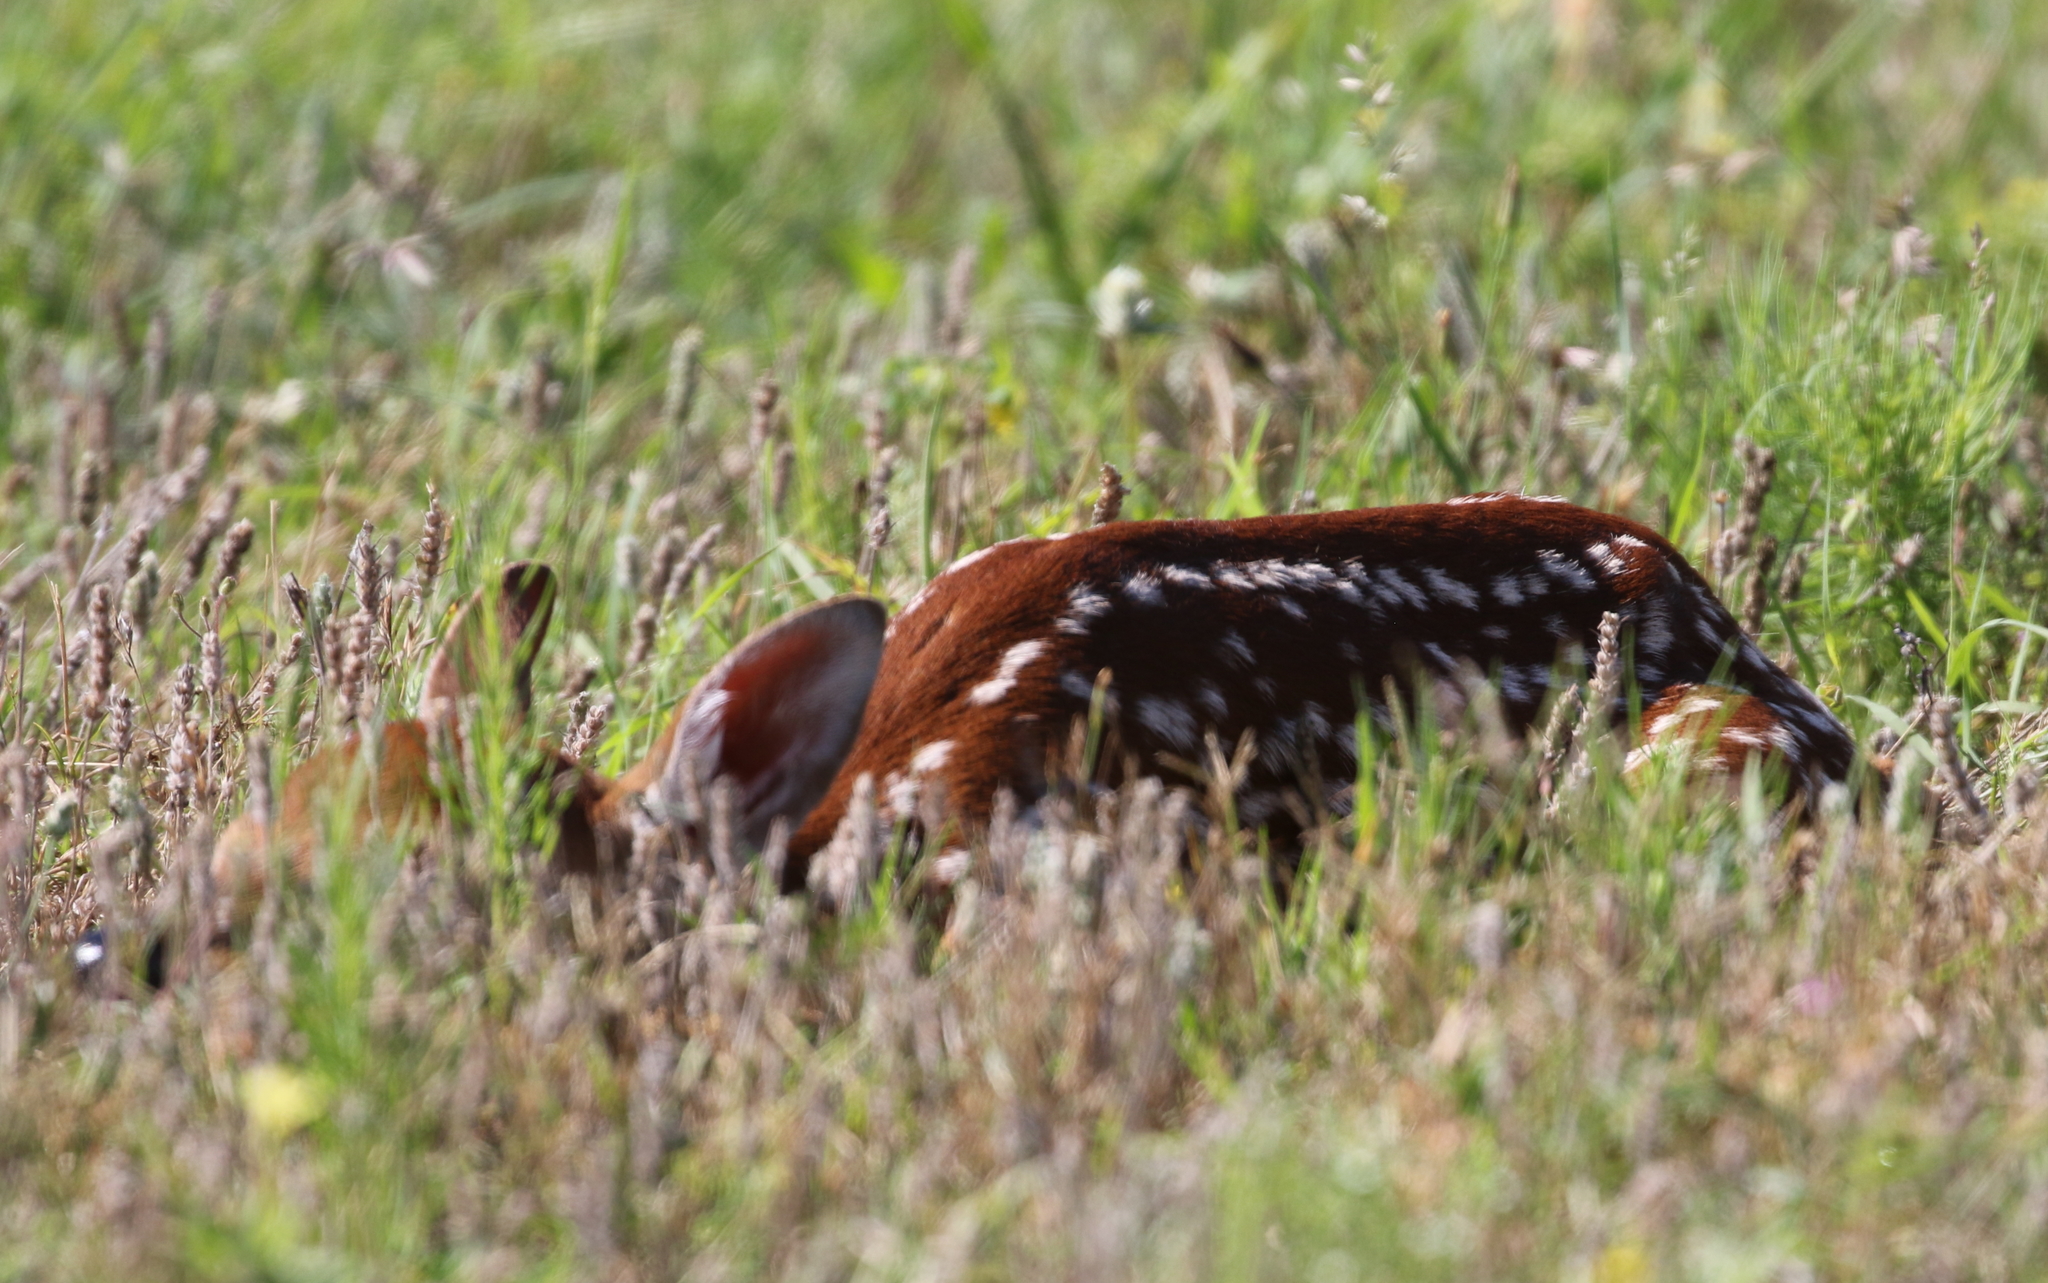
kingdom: Animalia
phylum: Chordata
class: Mammalia
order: Artiodactyla
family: Cervidae
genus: Odocoileus
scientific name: Odocoileus virginianus
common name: White-tailed deer
